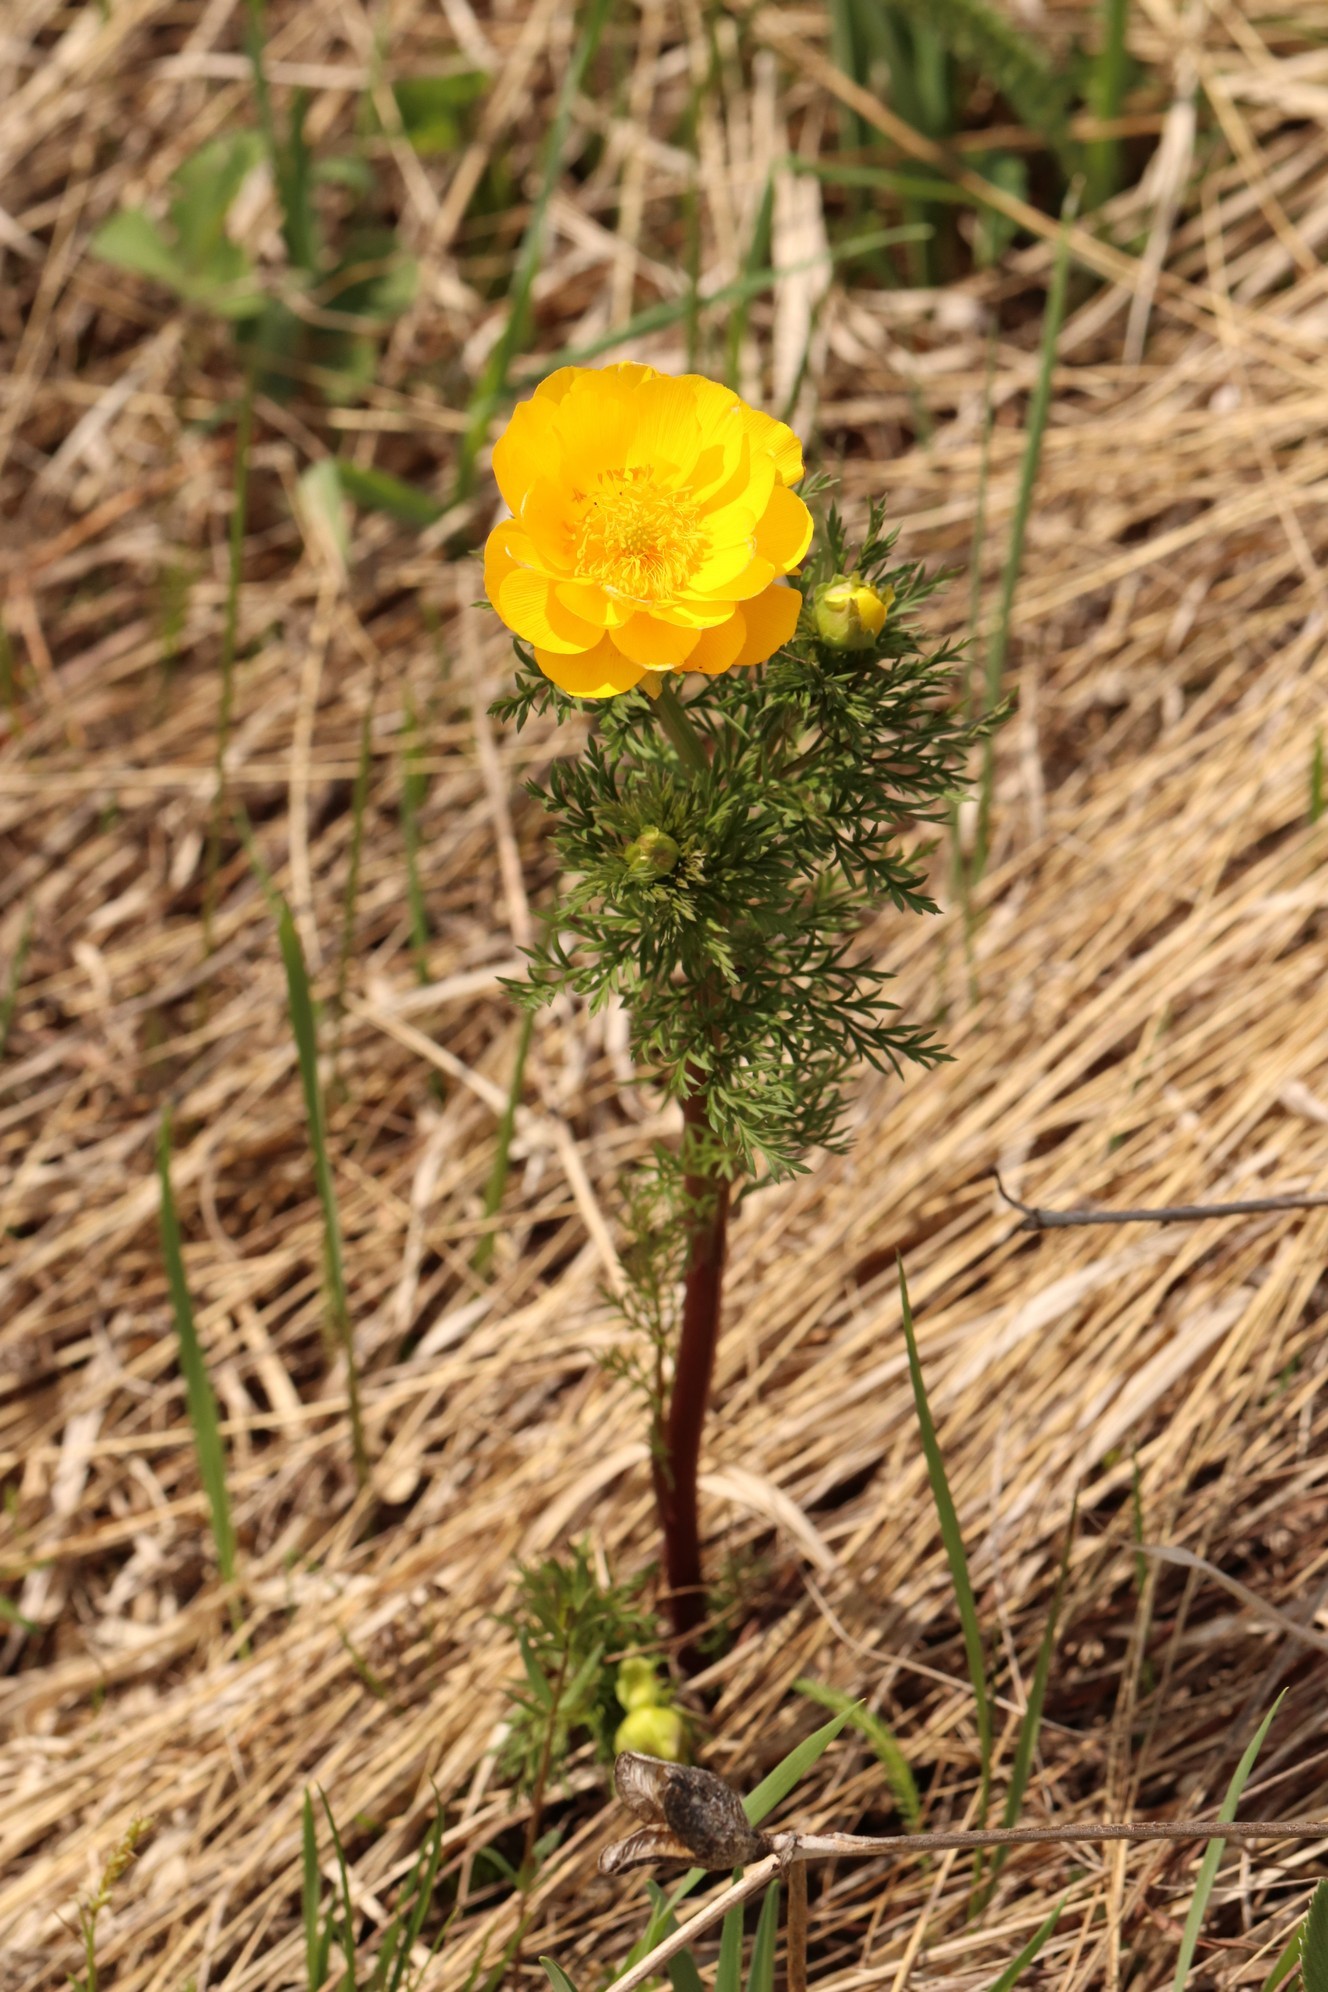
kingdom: Plantae
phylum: Tracheophyta
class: Magnoliopsida
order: Ranunculales
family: Ranunculaceae
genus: Adonis
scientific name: Adonis
